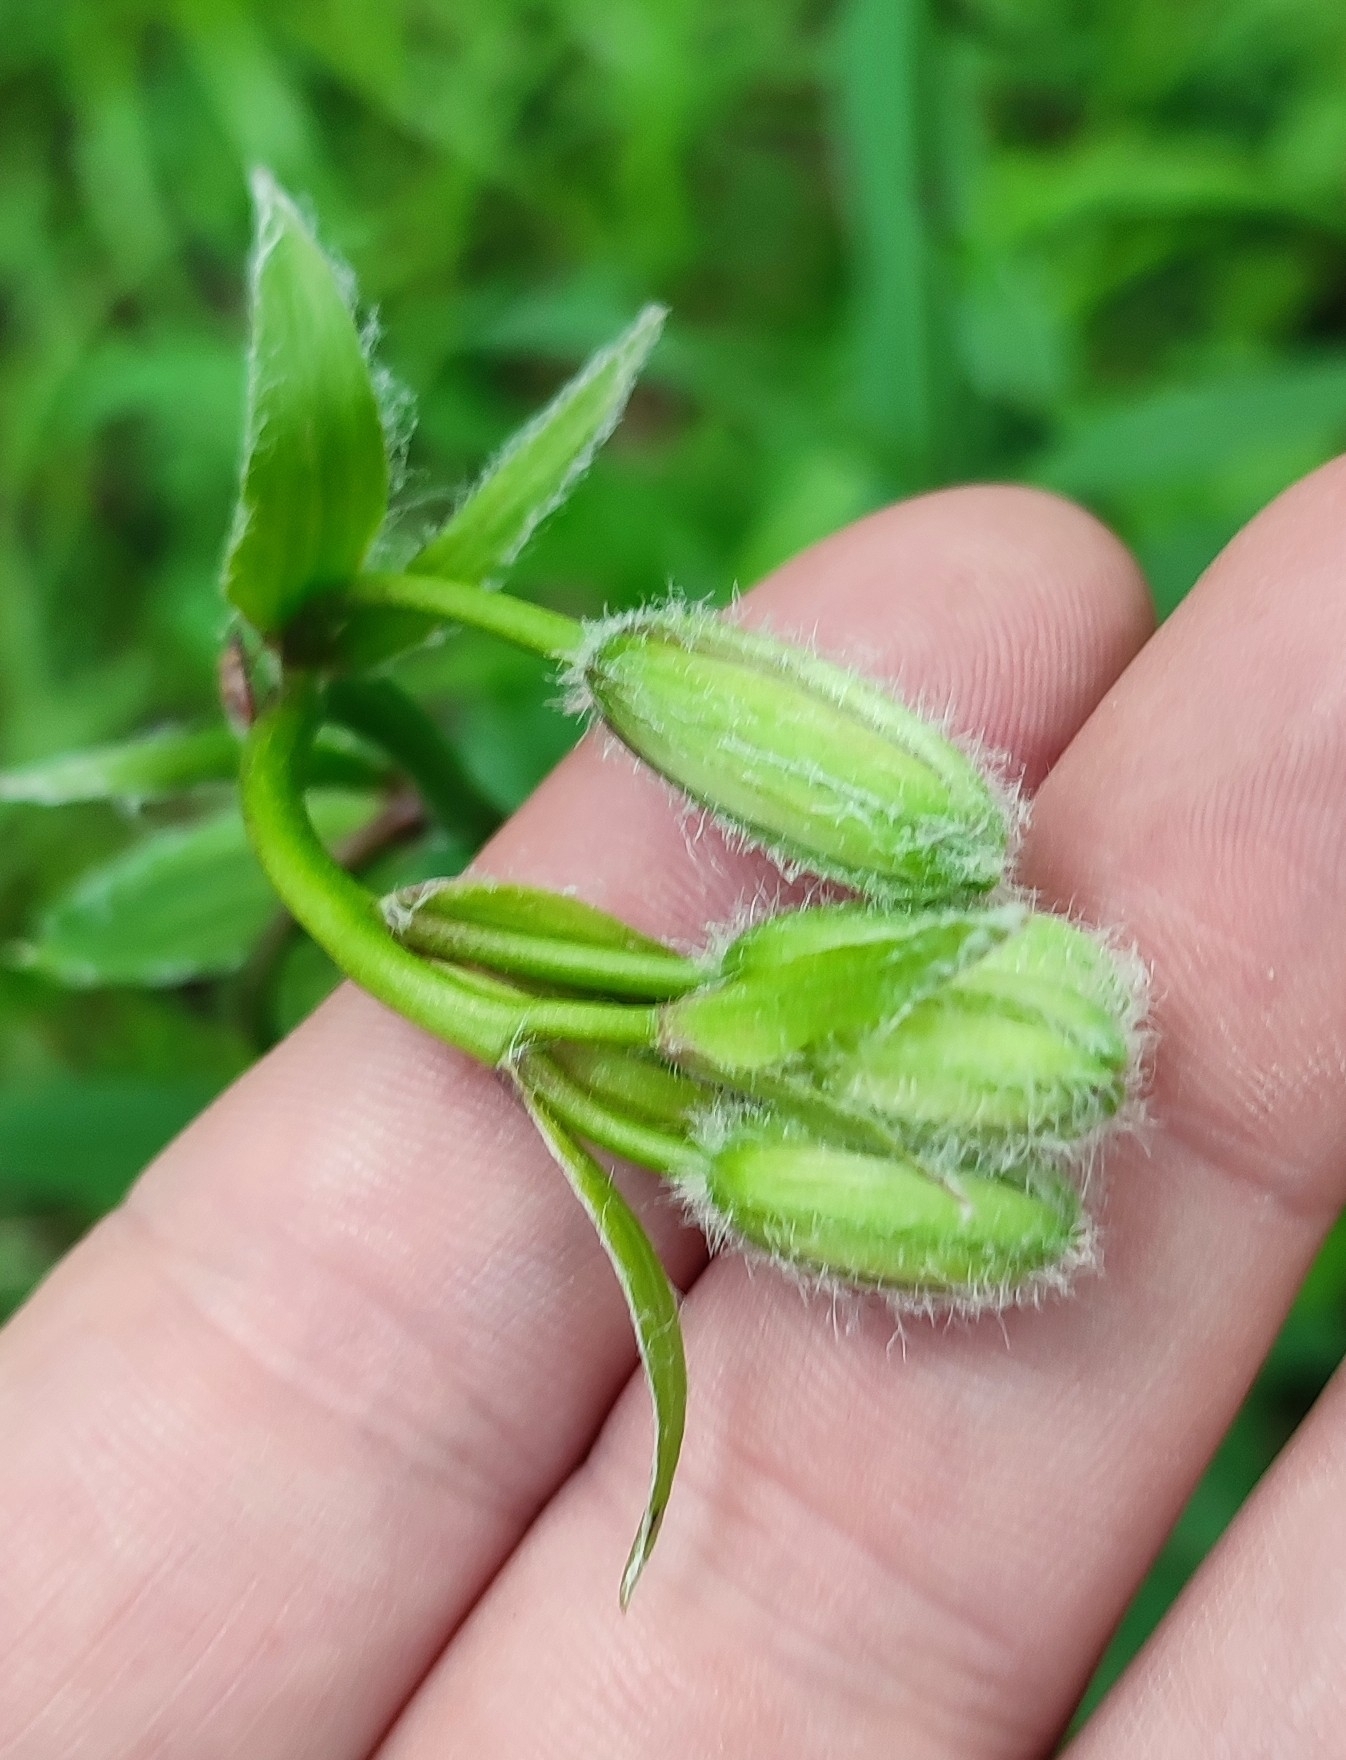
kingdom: Plantae
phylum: Tracheophyta
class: Liliopsida
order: Liliales
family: Liliaceae
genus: Lilium
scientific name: Lilium martagon
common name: Martagon lily
